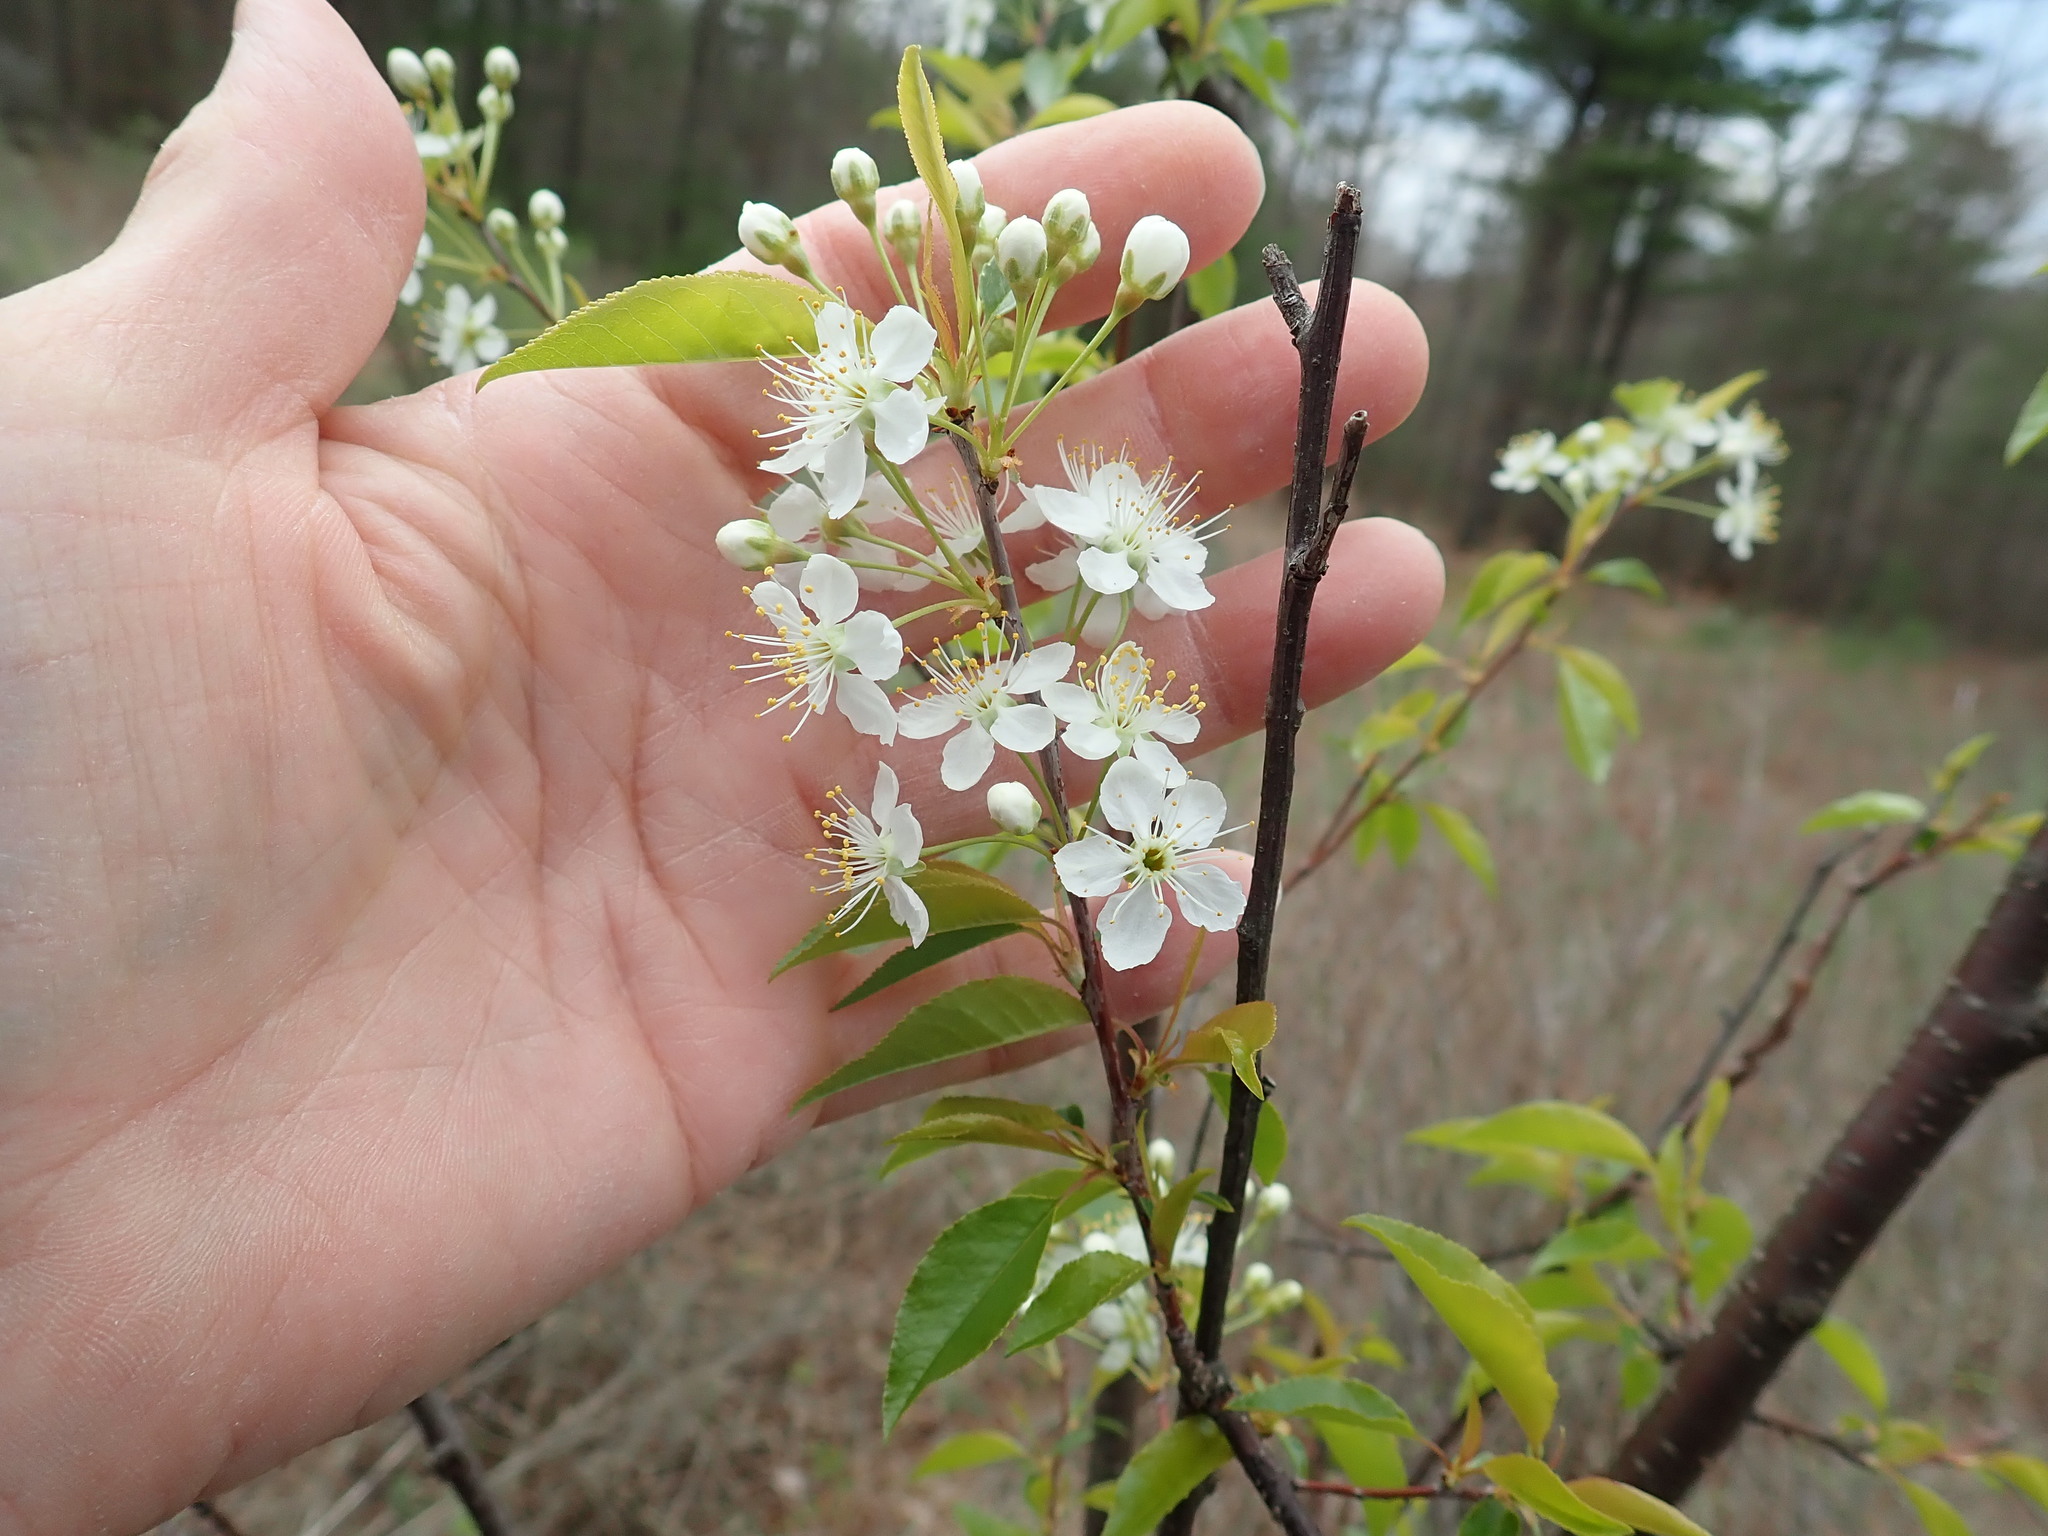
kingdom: Plantae
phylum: Tracheophyta
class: Magnoliopsida
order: Rosales
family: Rosaceae
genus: Prunus
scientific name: Prunus pensylvanica
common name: Pin cherry
